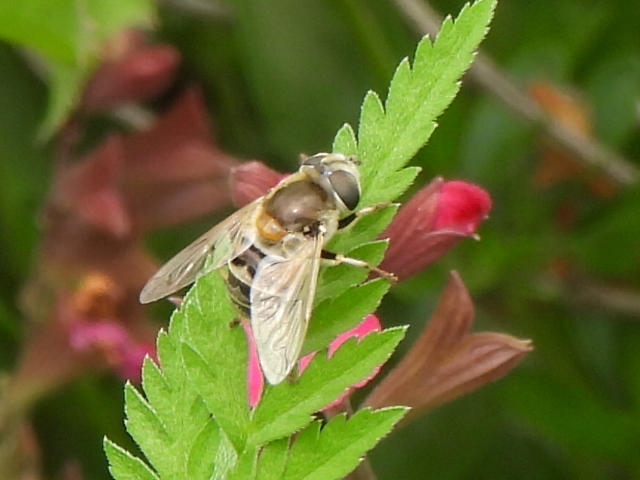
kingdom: Animalia
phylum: Arthropoda
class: Insecta
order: Diptera
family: Syrphidae
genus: Eristalis
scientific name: Eristalis stipator
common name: Yellow-shouldered drone fly
